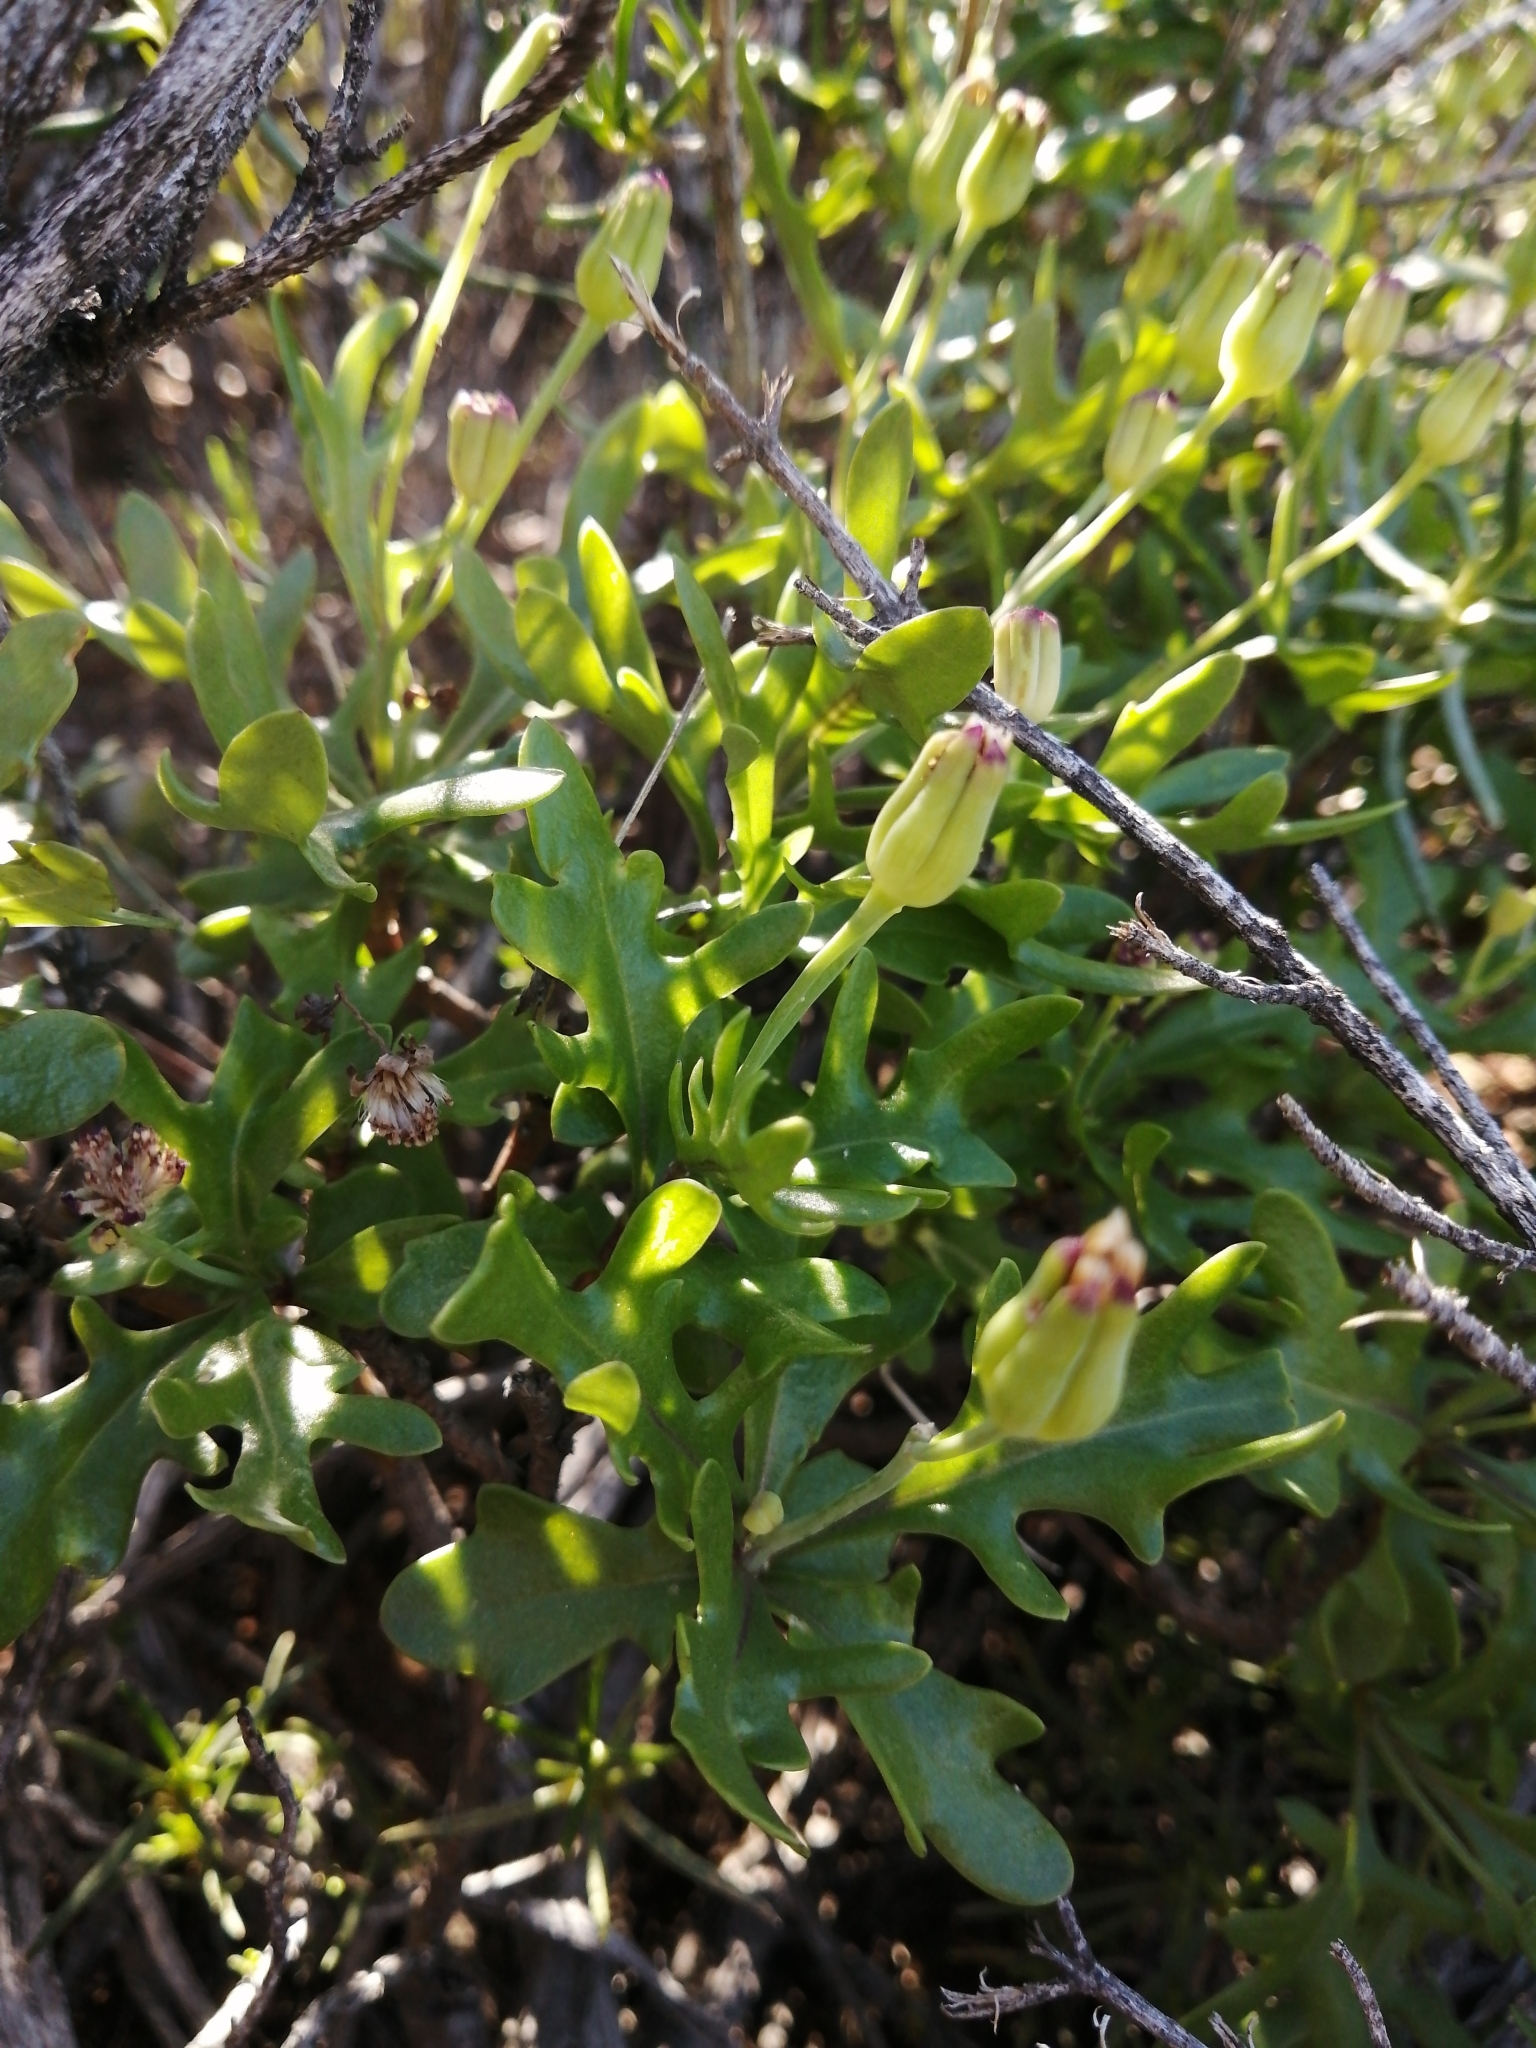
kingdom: Plantae
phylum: Tracheophyta
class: Magnoliopsida
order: Asterales
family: Asteraceae
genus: Othonna
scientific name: Othonna retrofracta
